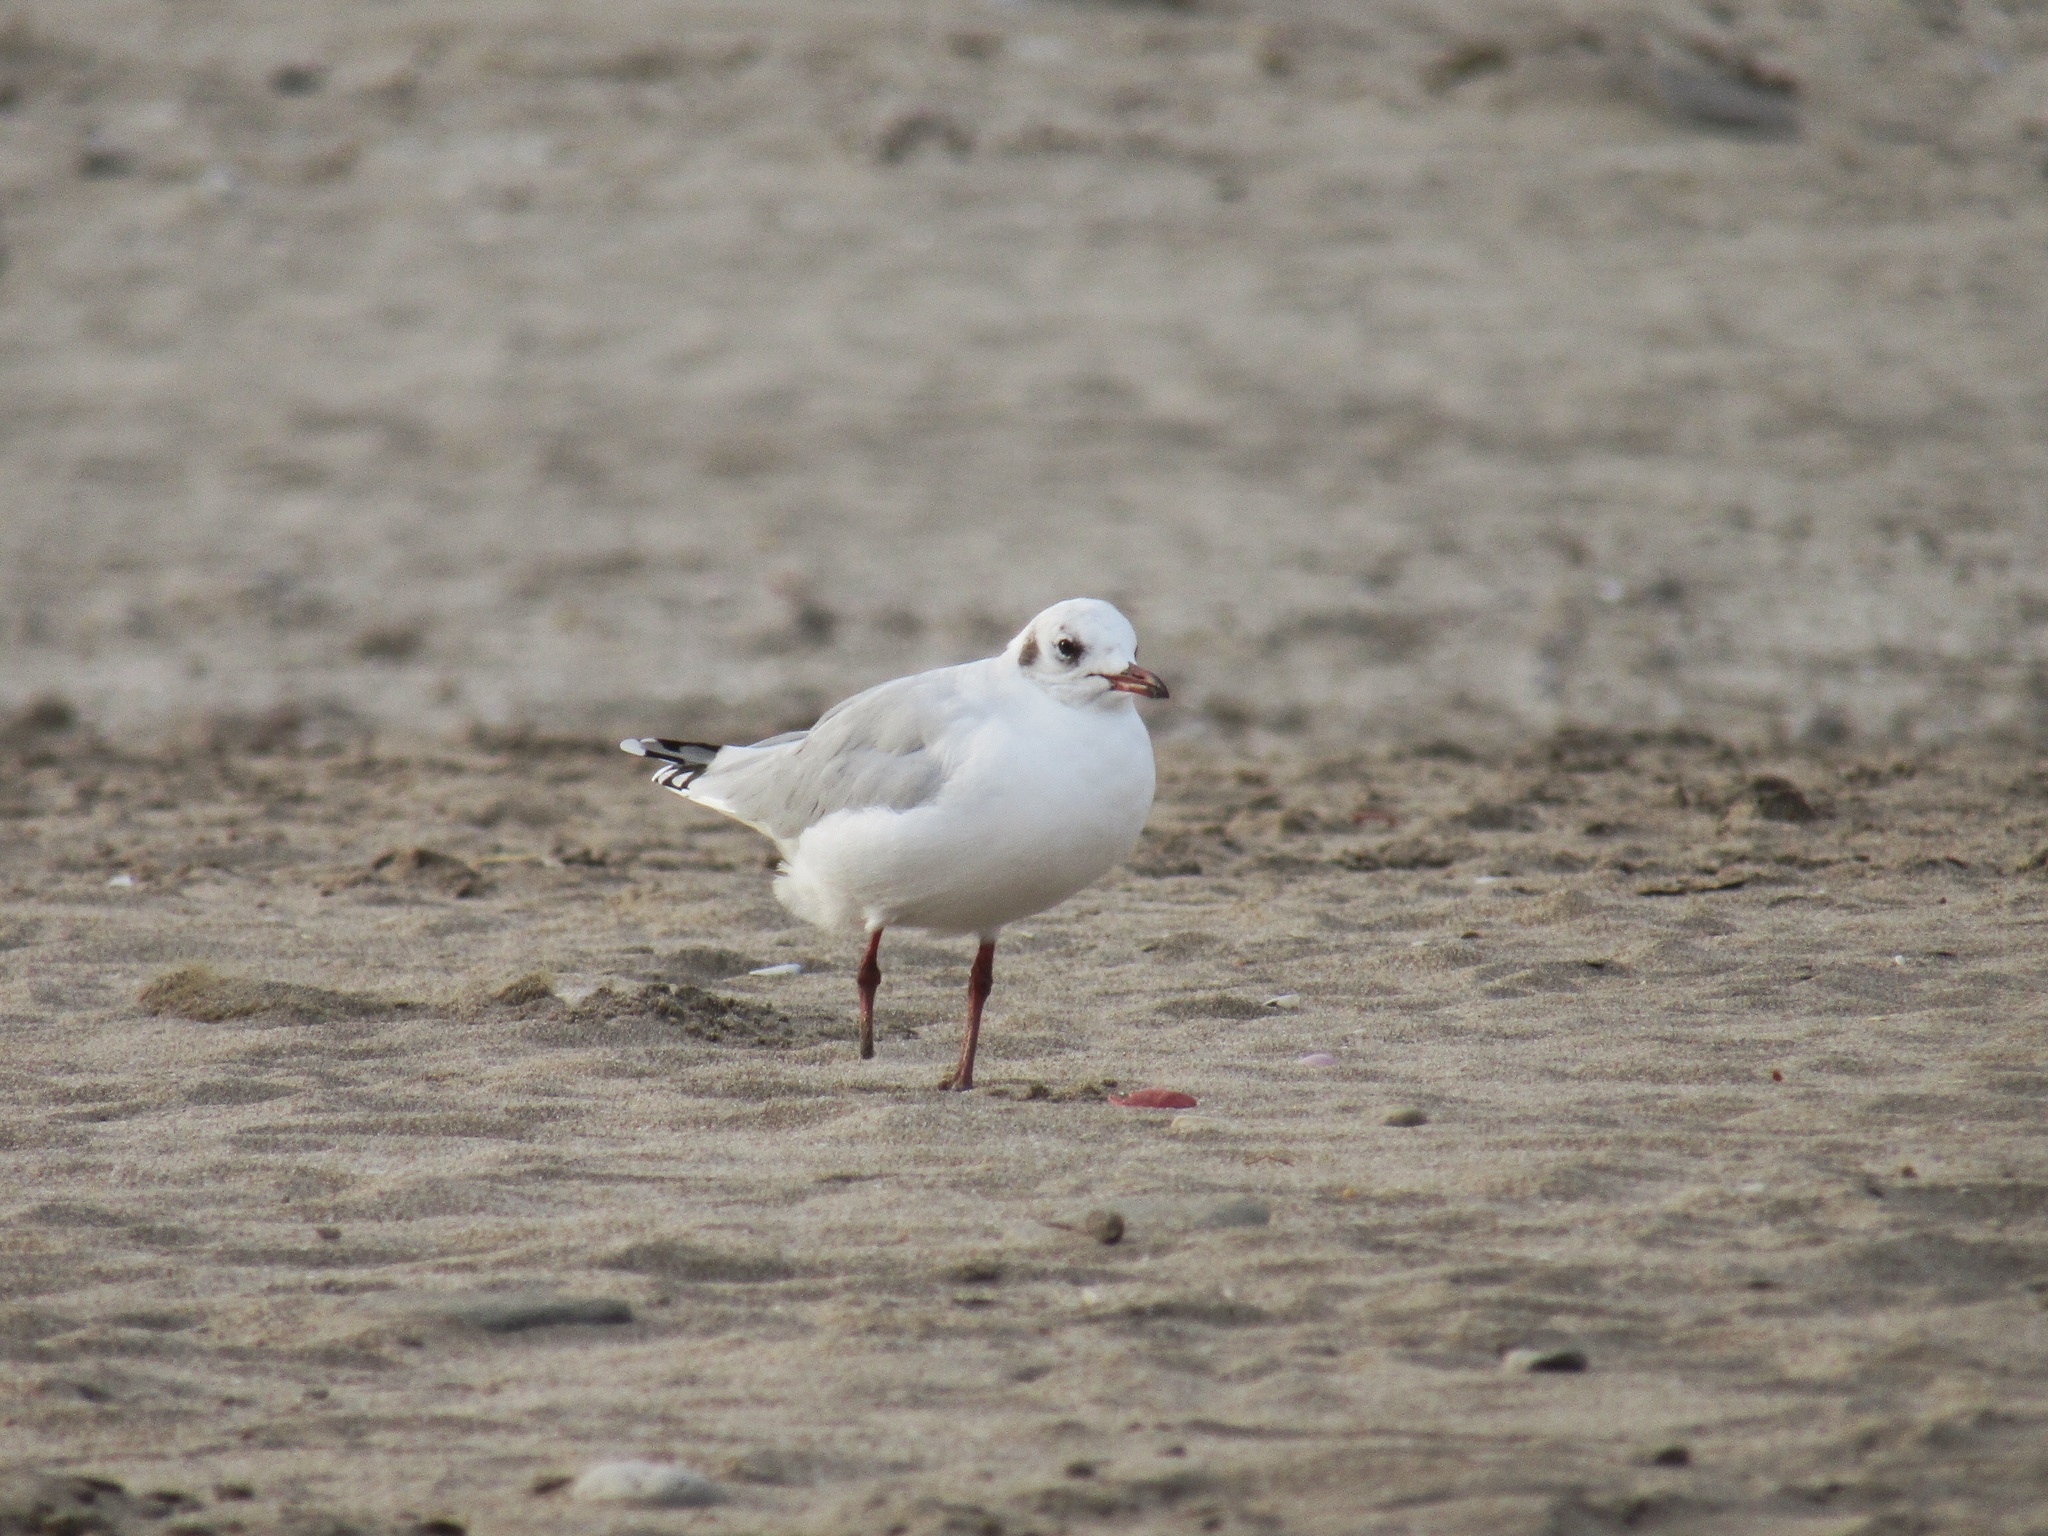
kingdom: Animalia
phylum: Chordata
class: Aves
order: Charadriiformes
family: Laridae
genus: Chroicocephalus
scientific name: Chroicocephalus maculipennis
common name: Brown-hooded gull
